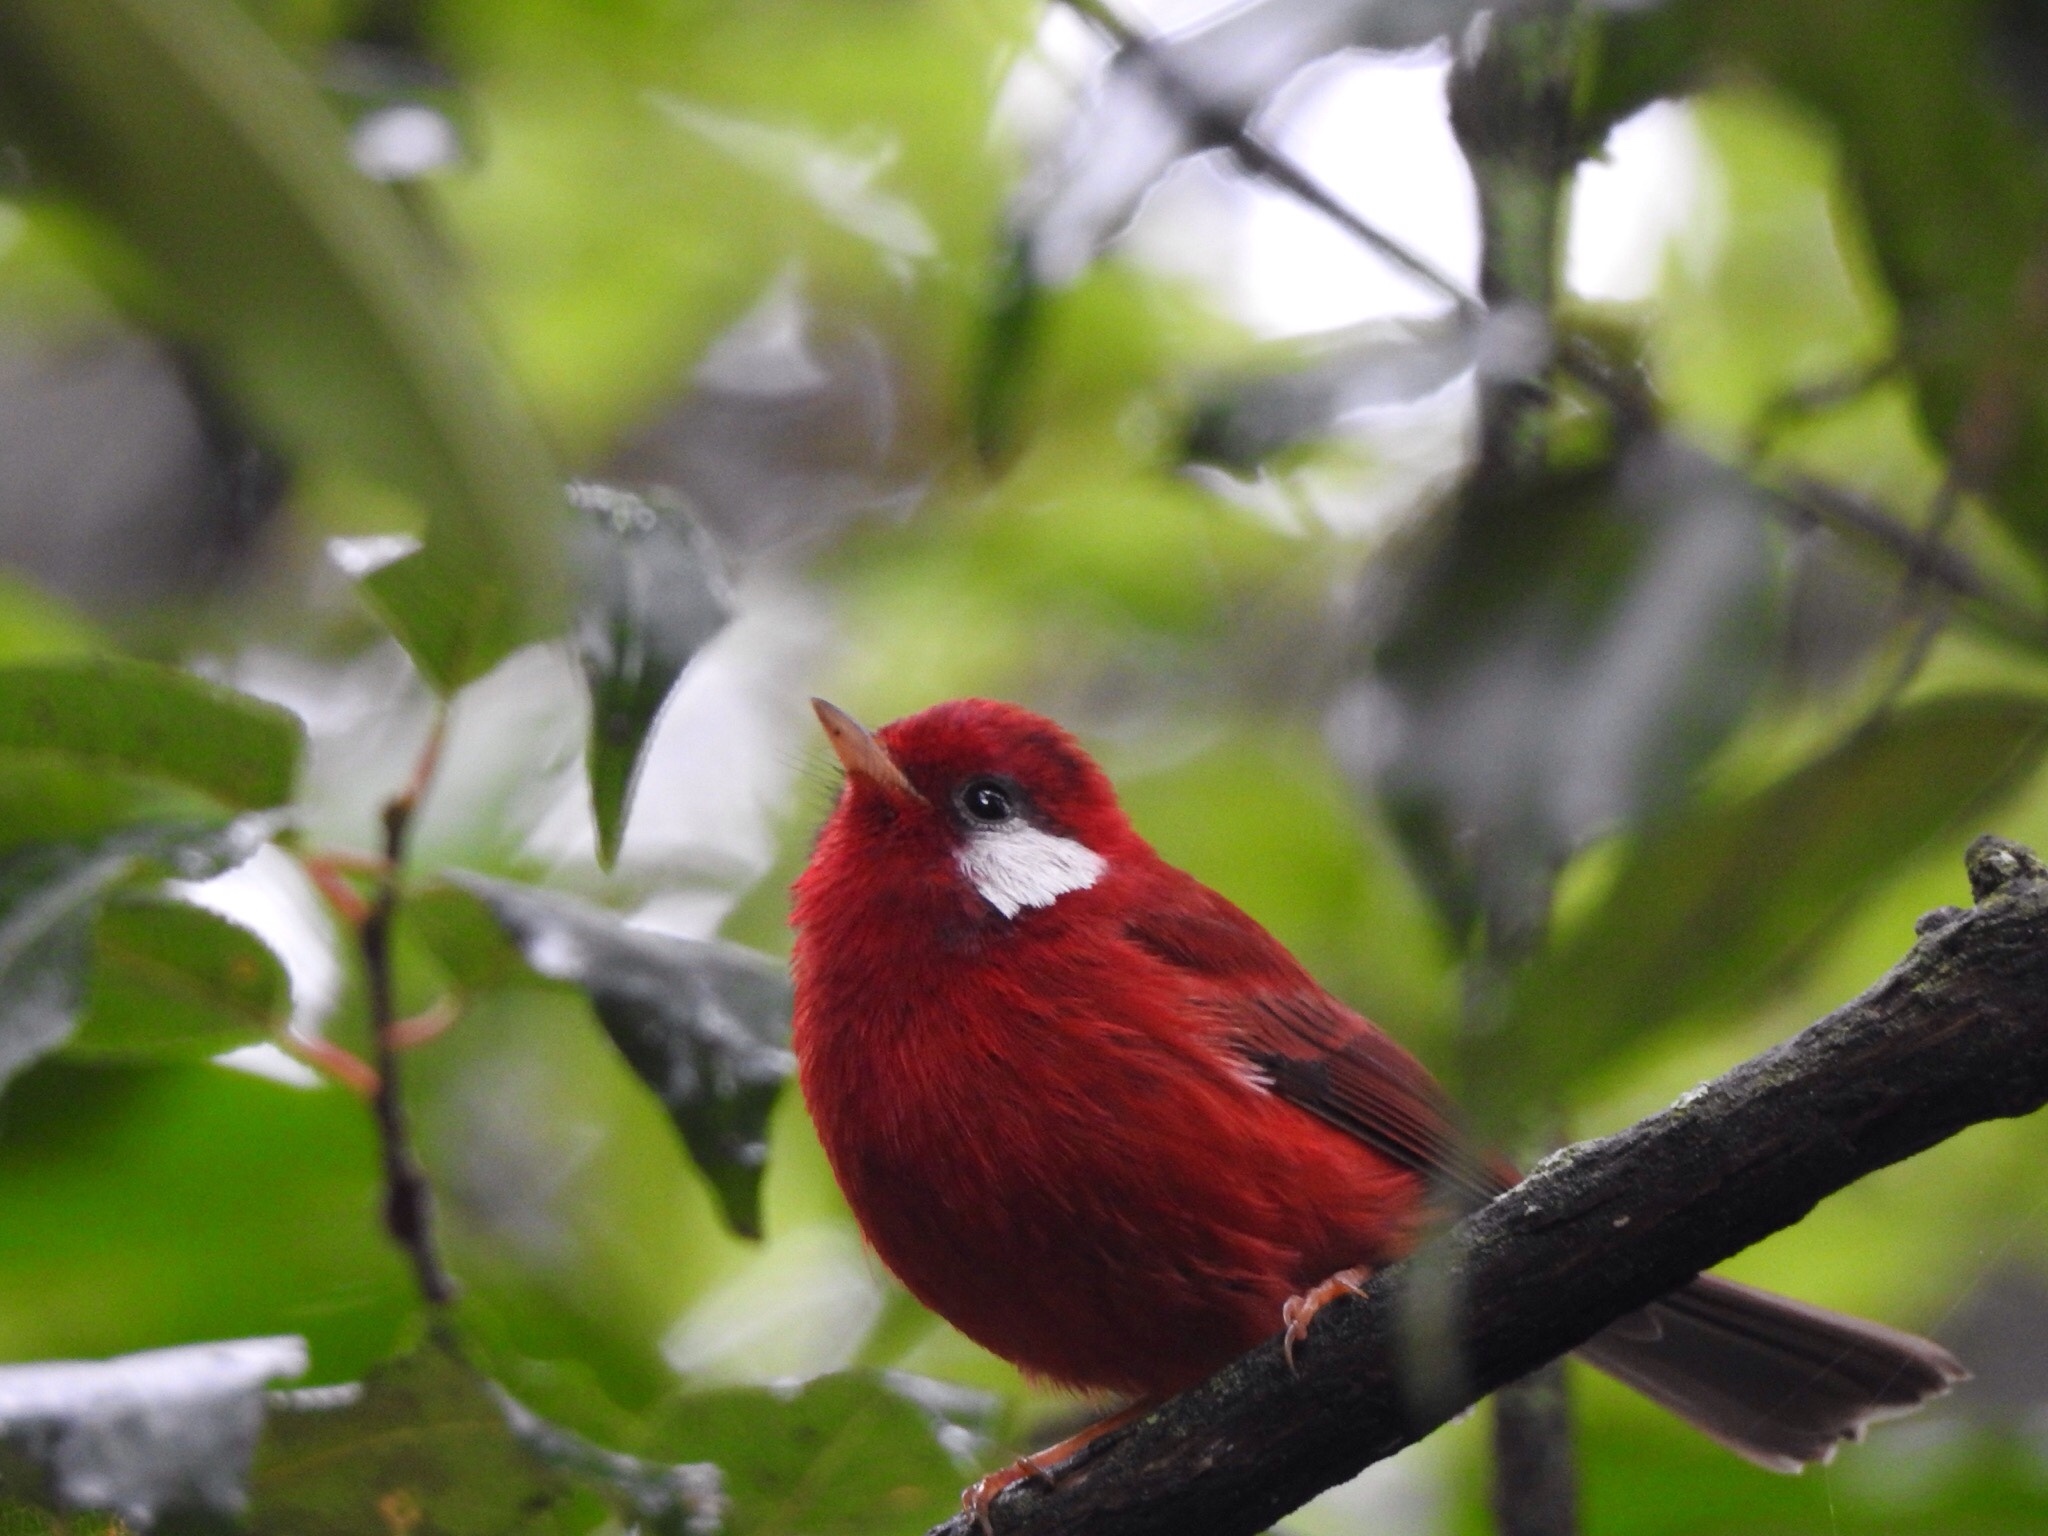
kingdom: Animalia
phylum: Chordata
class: Aves
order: Passeriformes
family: Parulidae
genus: Cardellina
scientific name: Cardellina rubra
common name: Red warbler
